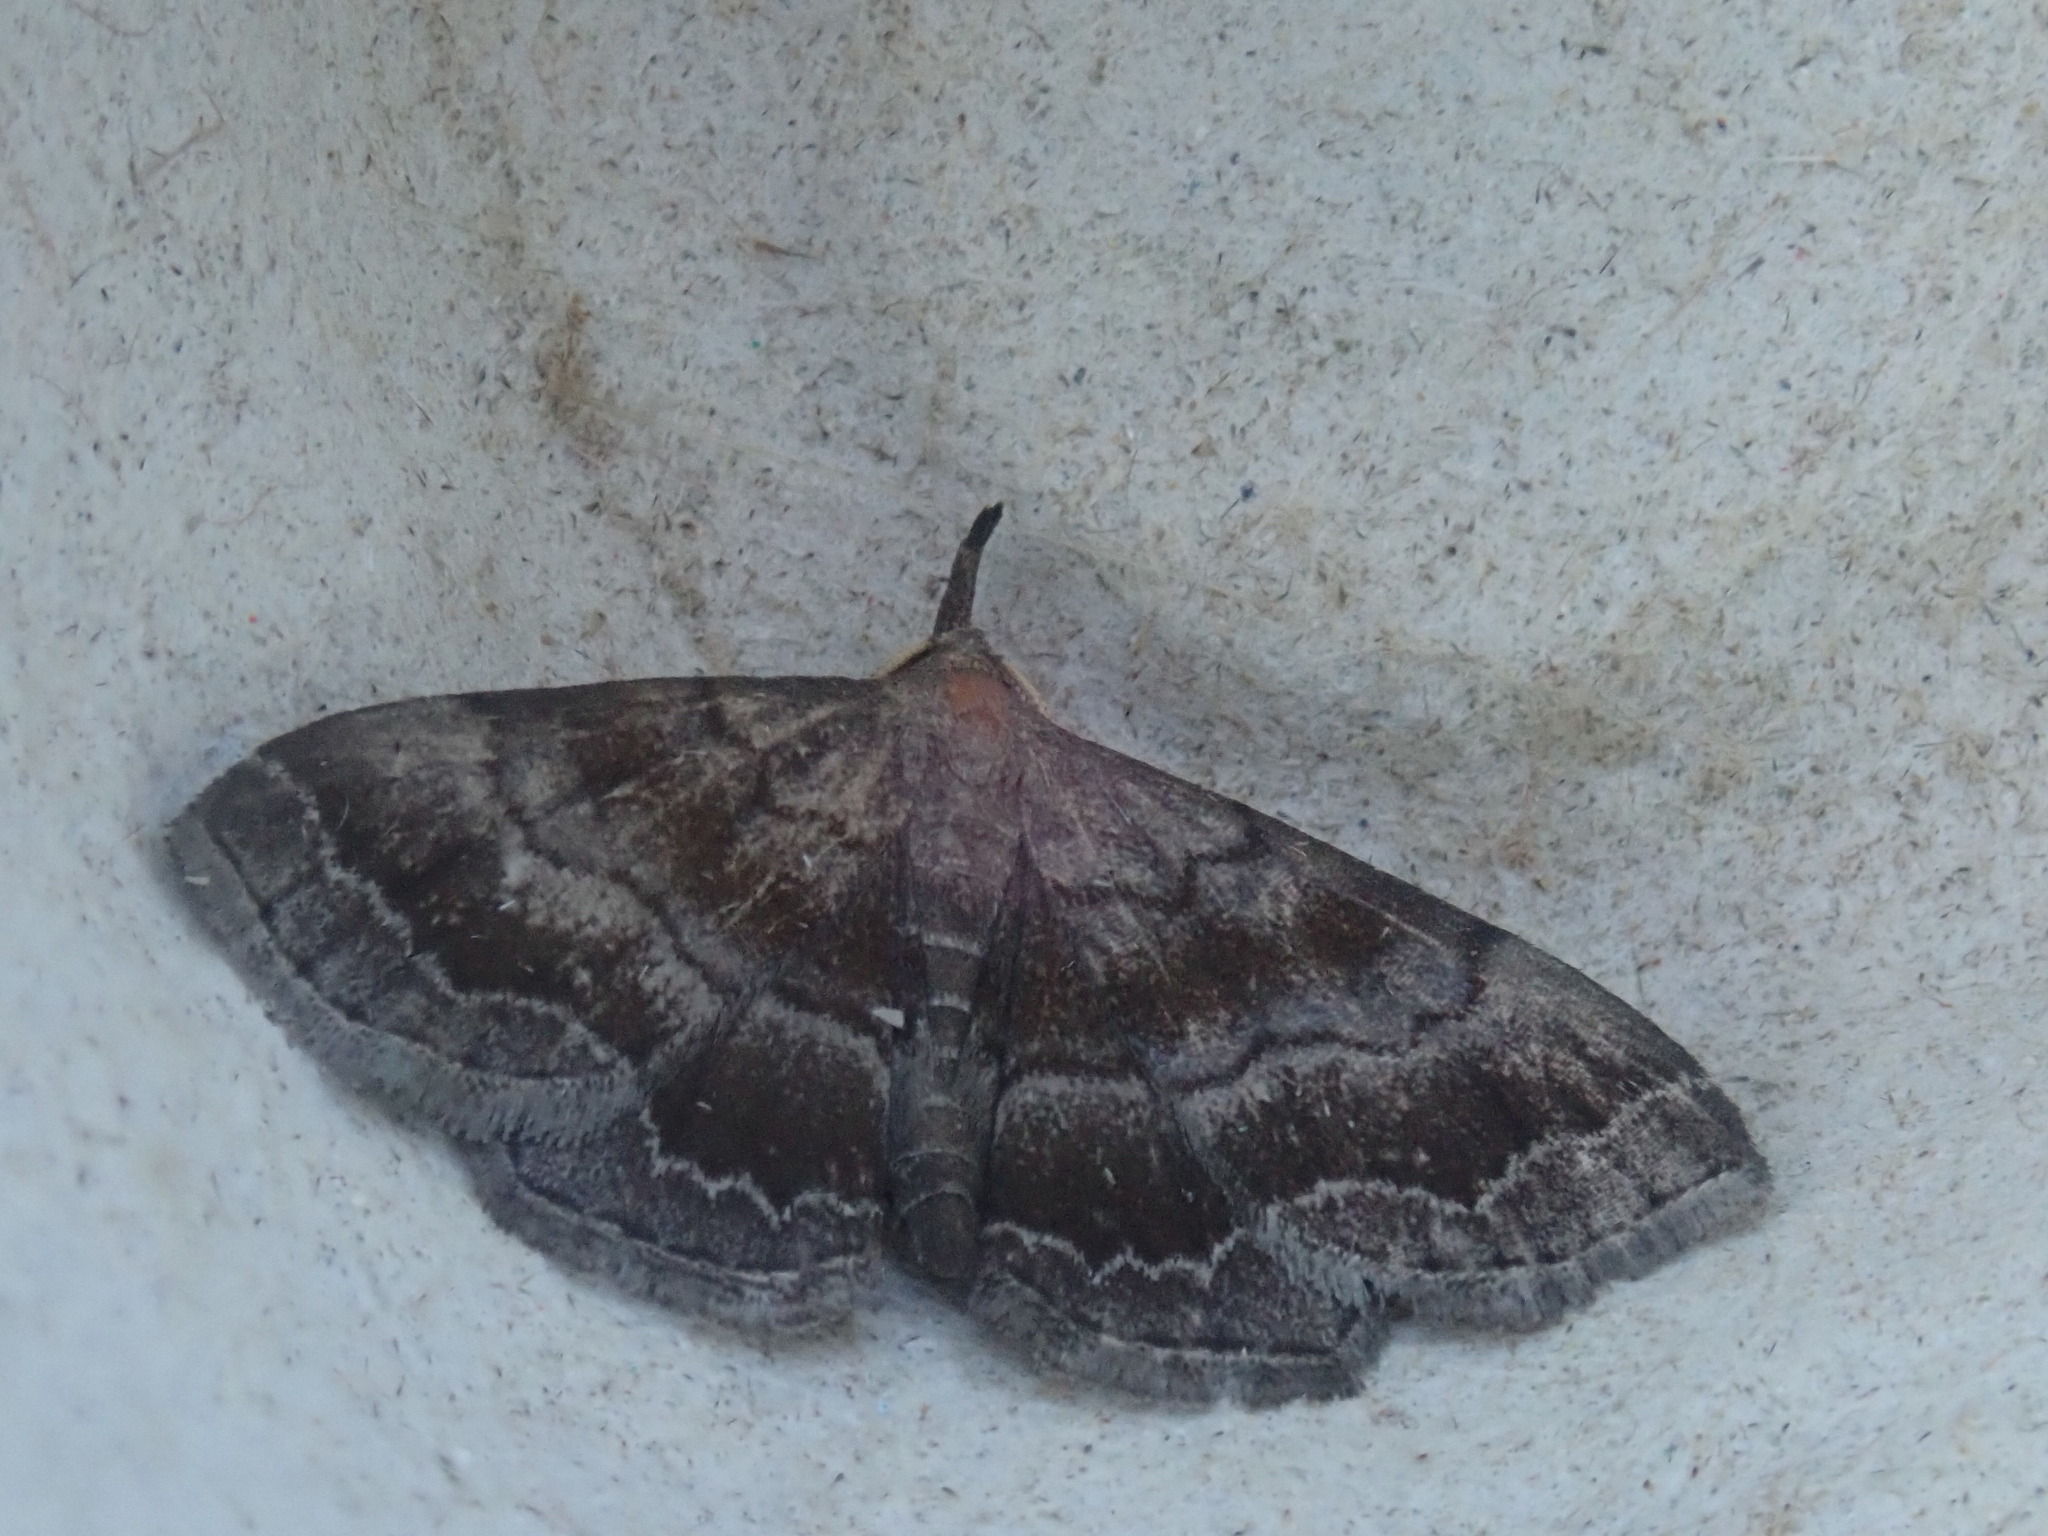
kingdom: Animalia
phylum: Arthropoda
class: Insecta
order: Lepidoptera
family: Erebidae
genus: Phalaenostola
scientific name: Phalaenostola larentioides
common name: Black-banded owlet
